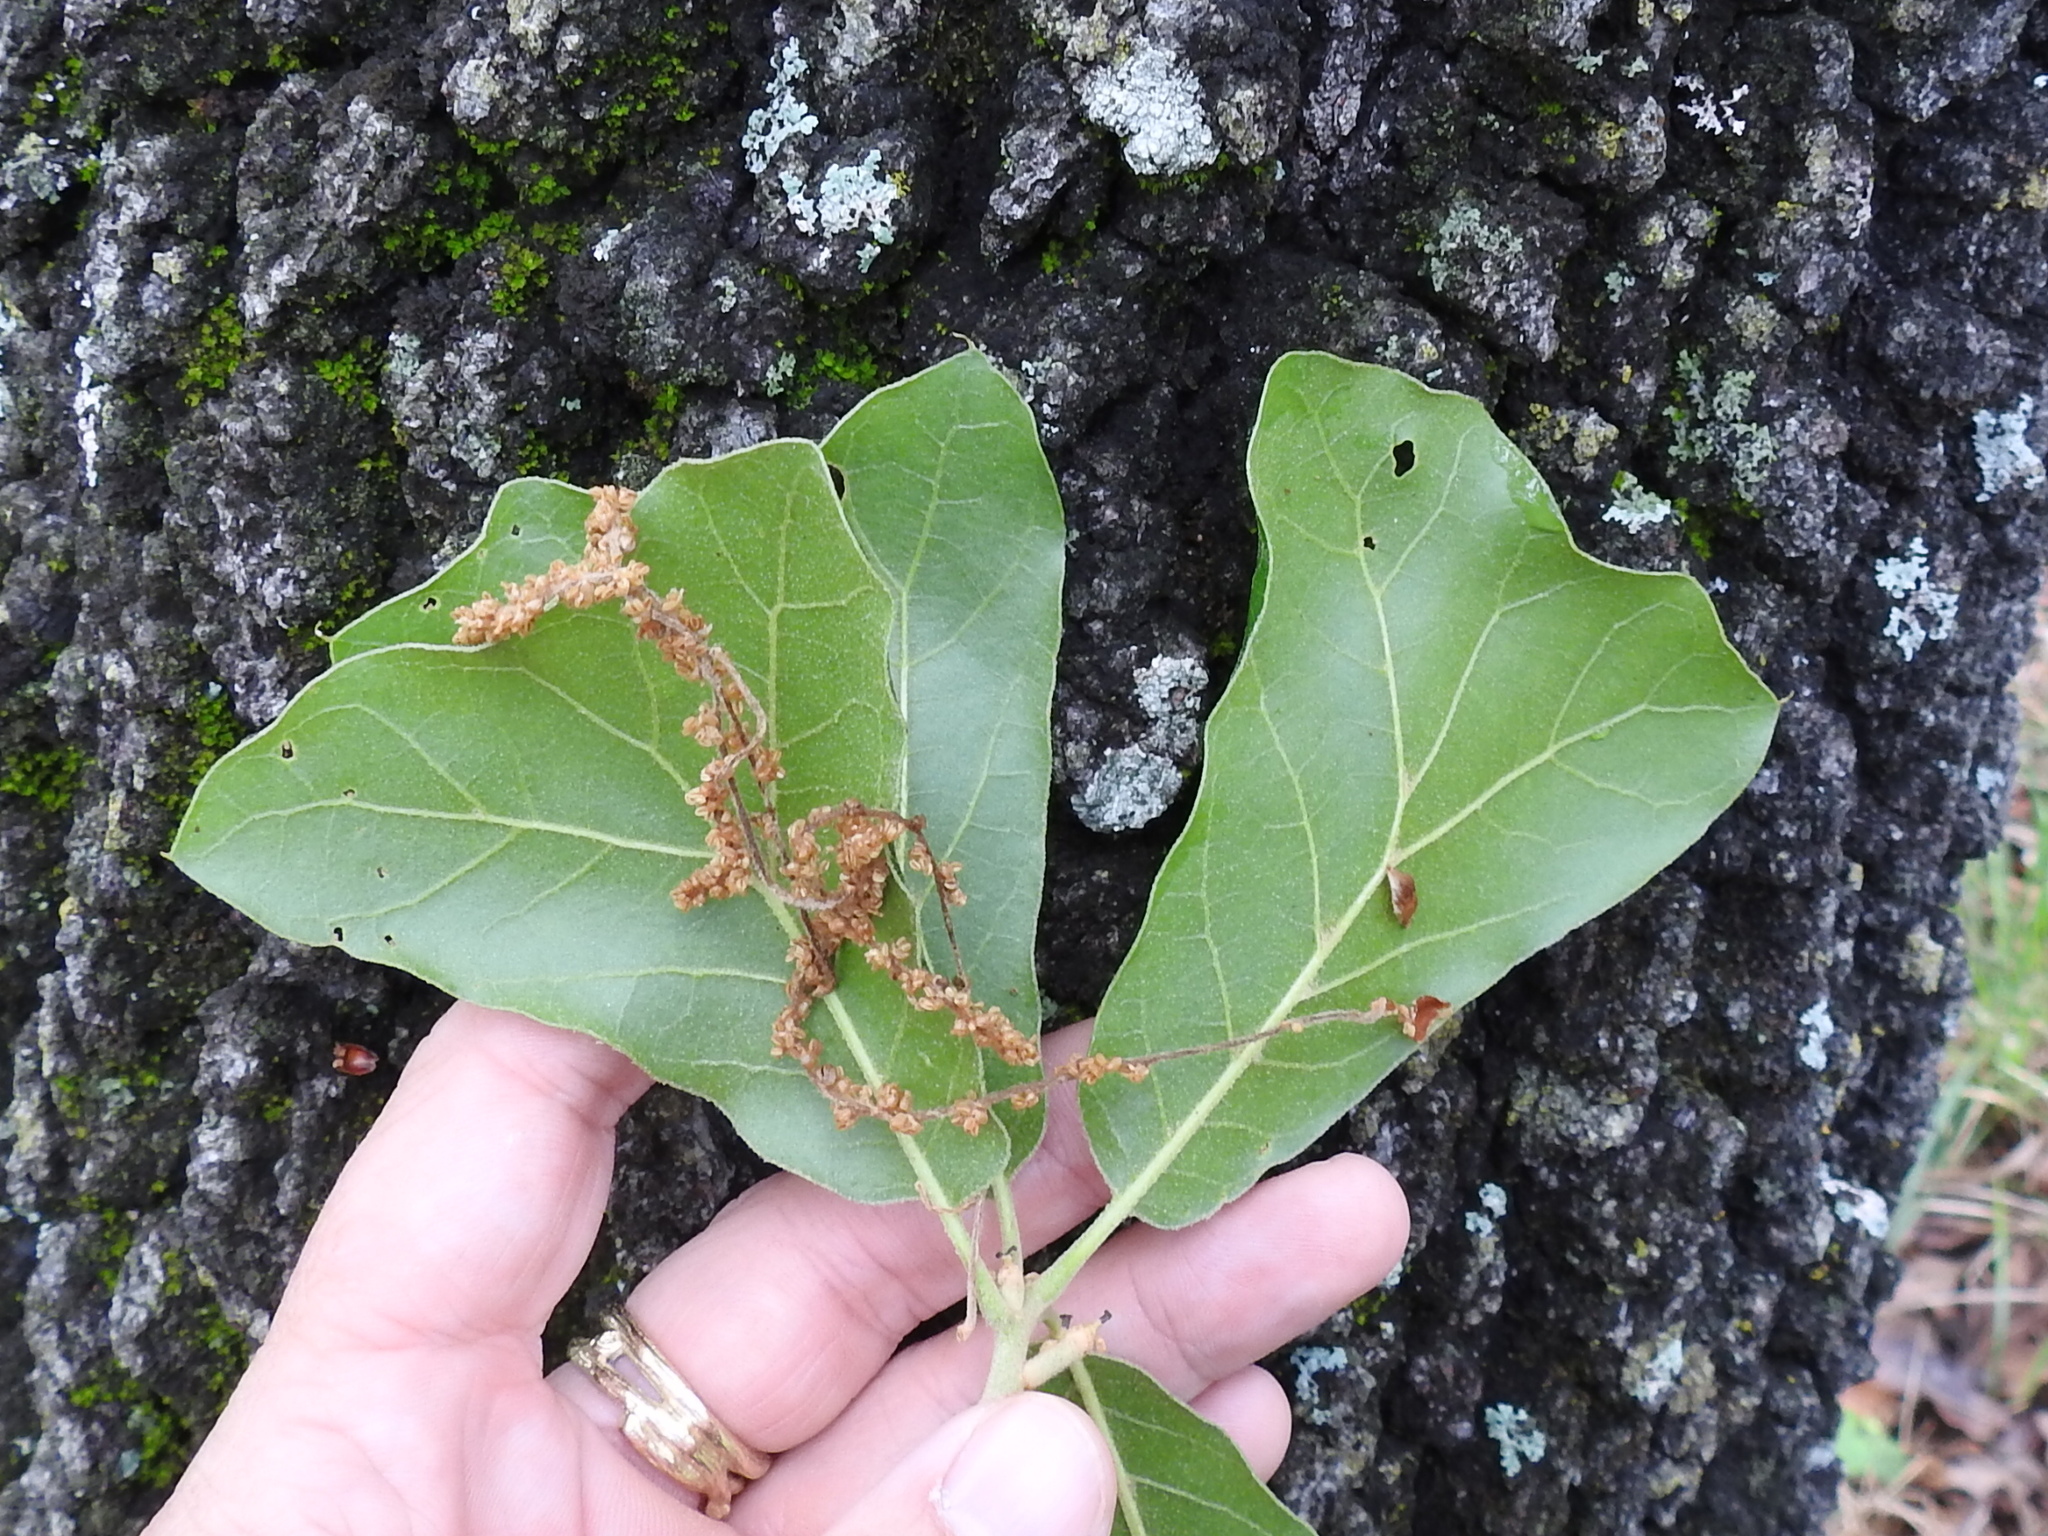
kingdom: Plantae
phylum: Tracheophyta
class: Magnoliopsida
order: Fagales
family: Fagaceae
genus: Quercus
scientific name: Quercus marilandica
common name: Blackjack oak
